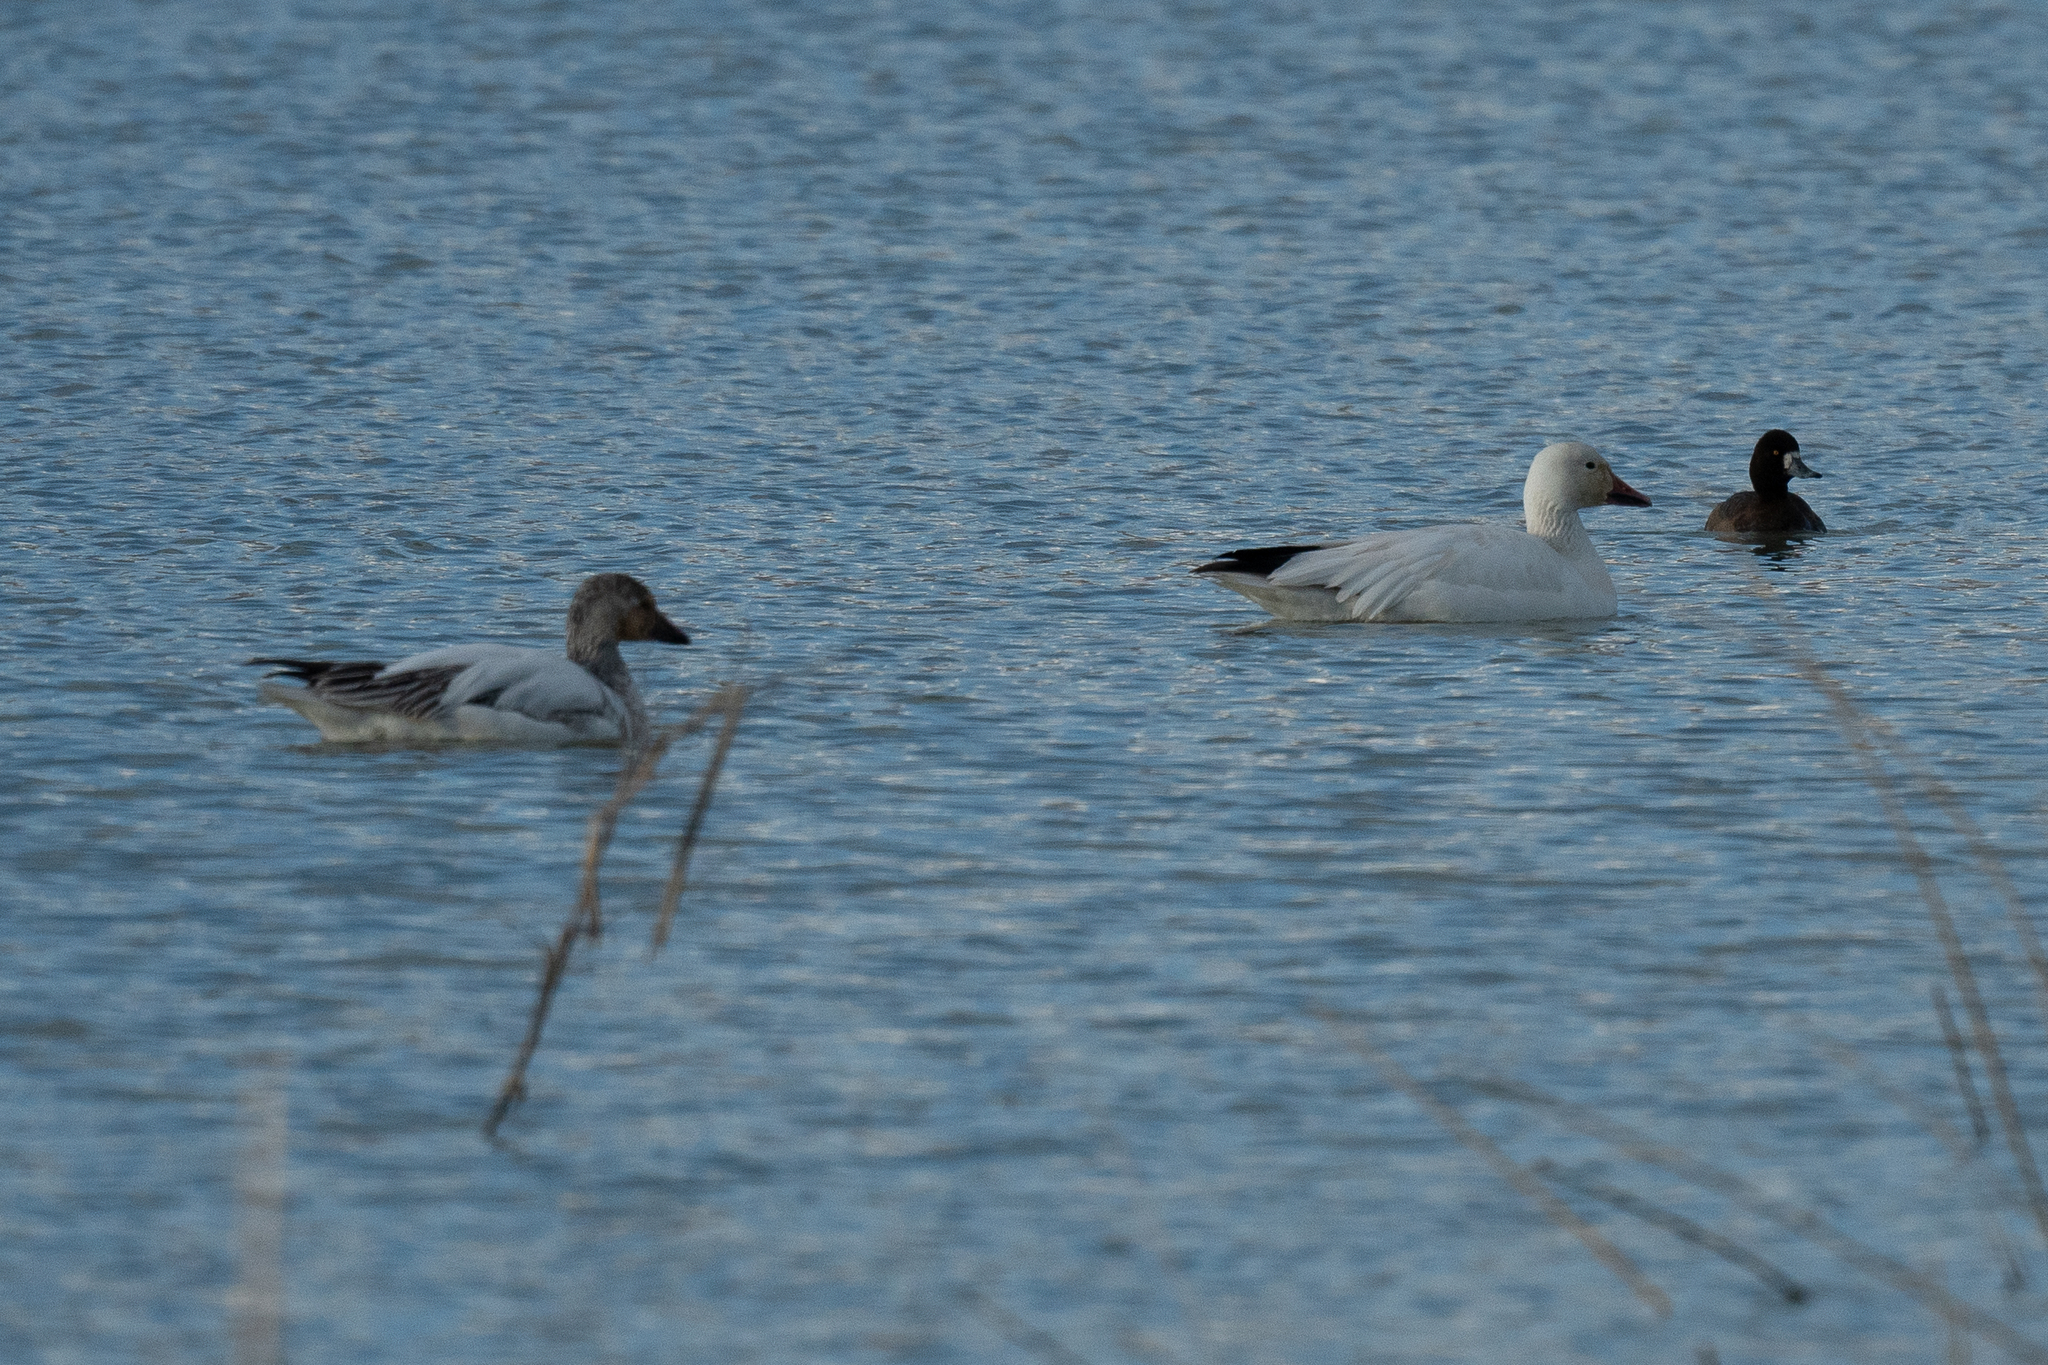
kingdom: Animalia
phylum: Chordata
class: Aves
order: Anseriformes
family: Anatidae
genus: Anser
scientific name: Anser caerulescens
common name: Snow goose
